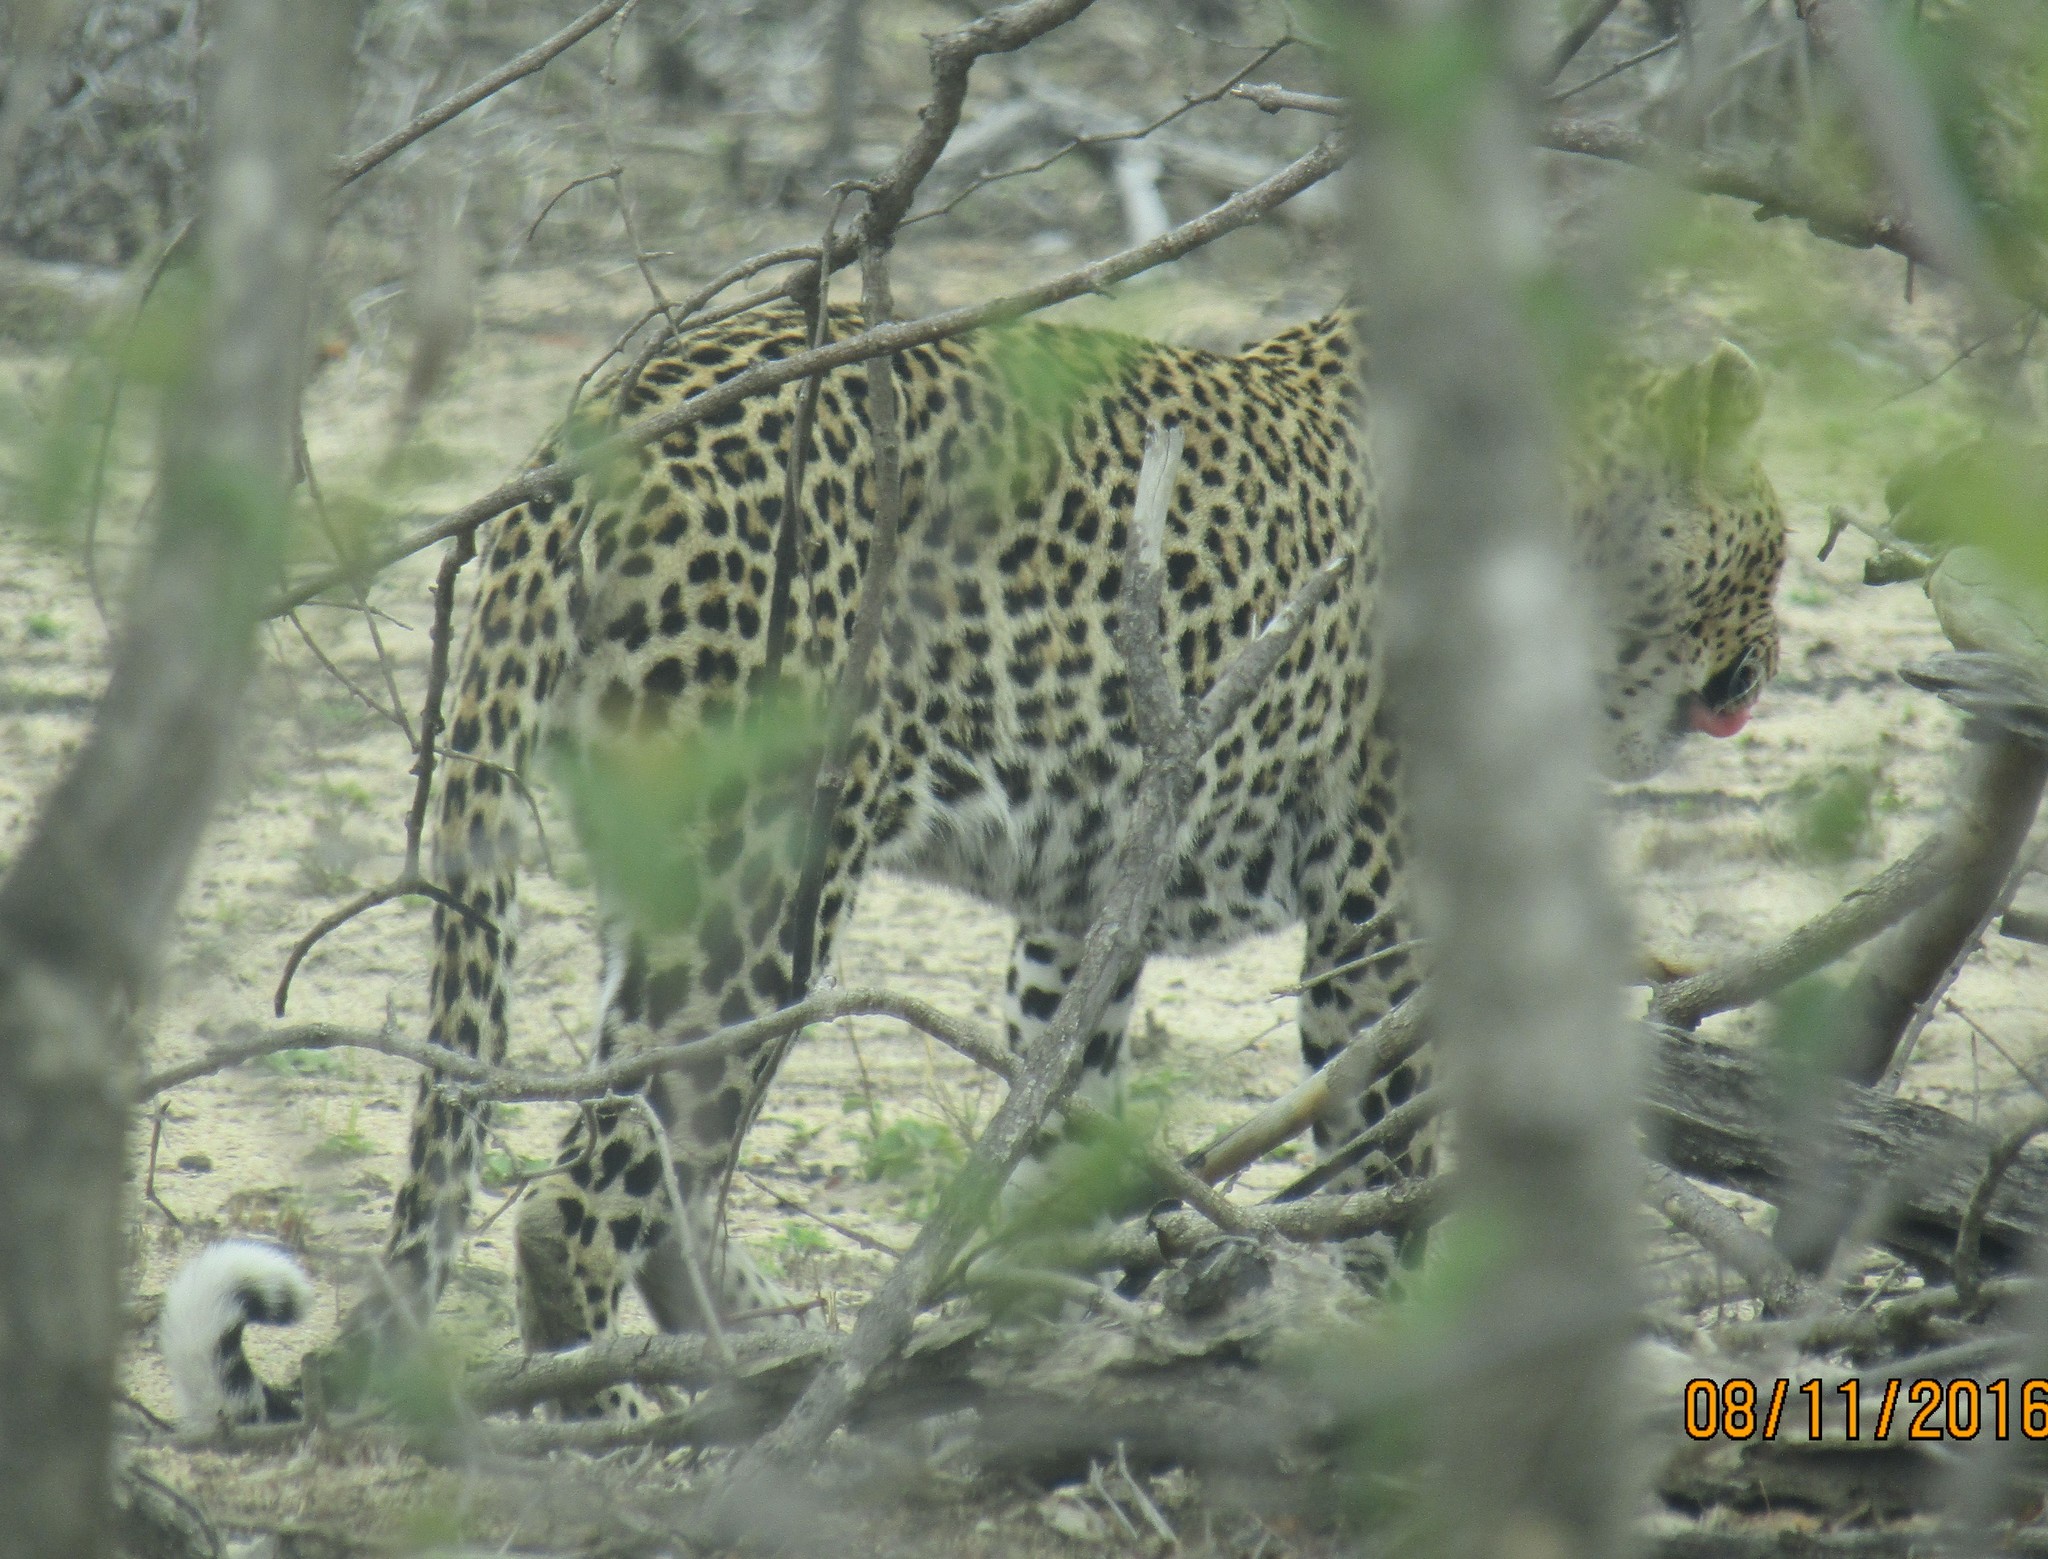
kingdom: Animalia
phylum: Chordata
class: Mammalia
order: Carnivora
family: Felidae
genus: Panthera
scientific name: Panthera pardus
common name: Leopard
